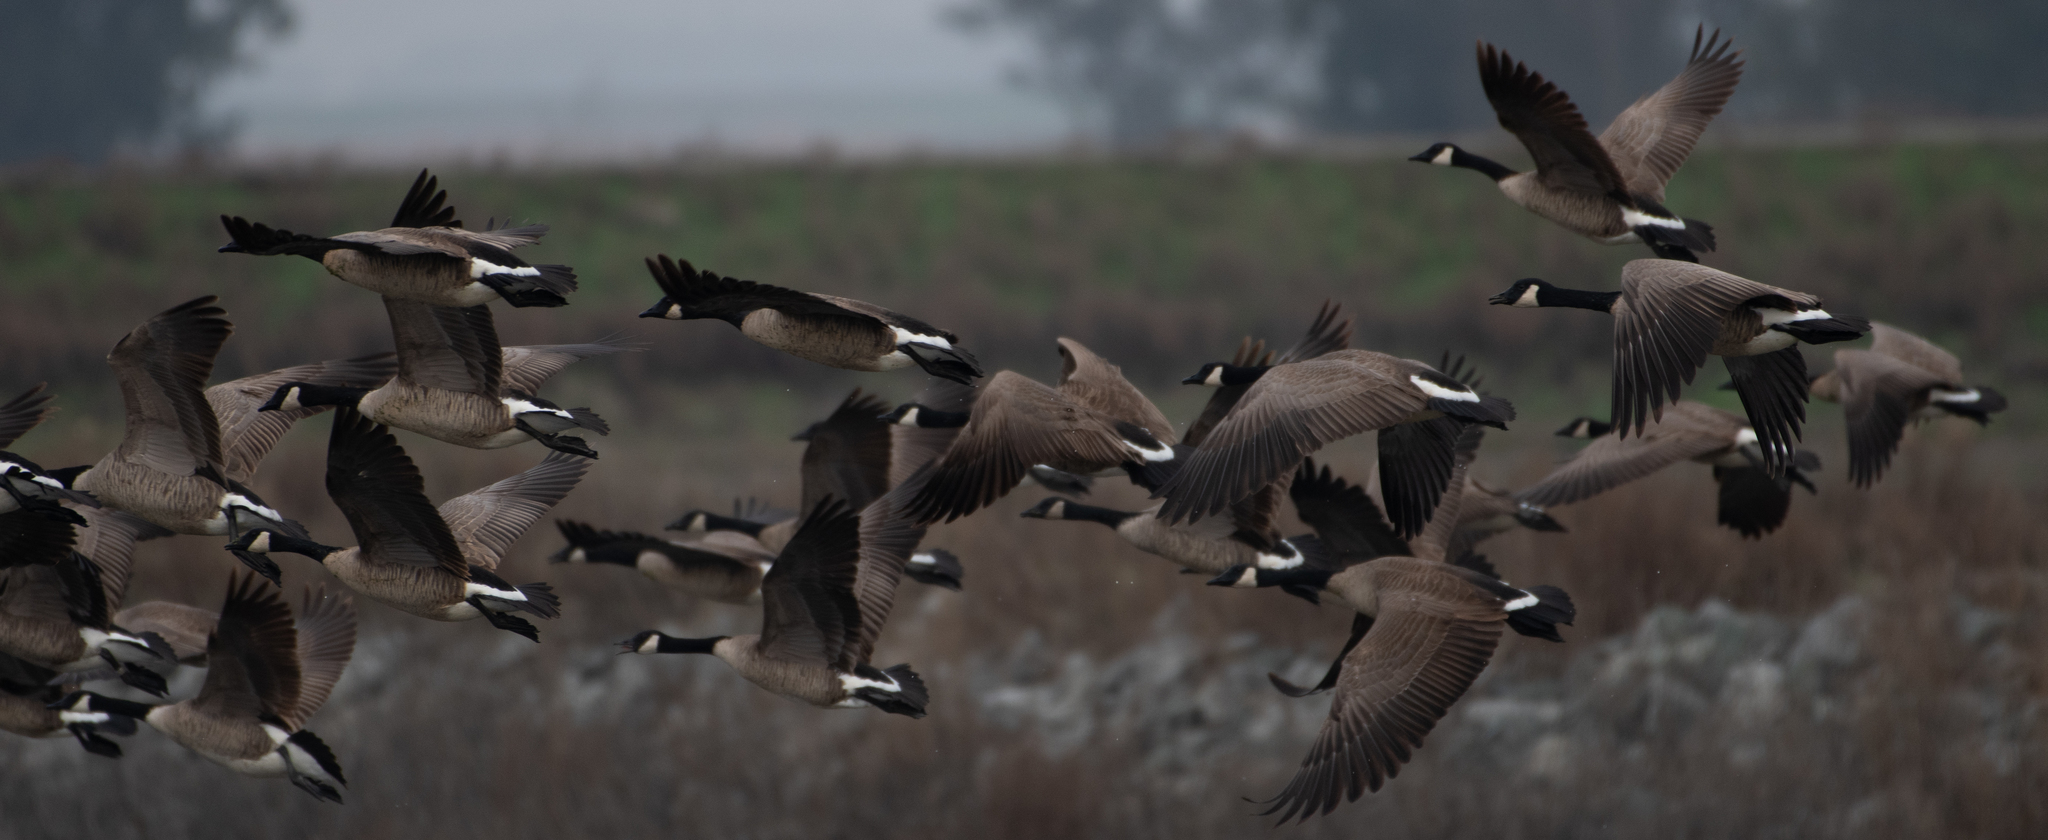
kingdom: Animalia
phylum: Chordata
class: Aves
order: Anseriformes
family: Anatidae
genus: Branta
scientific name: Branta canadensis
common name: Canada goose
